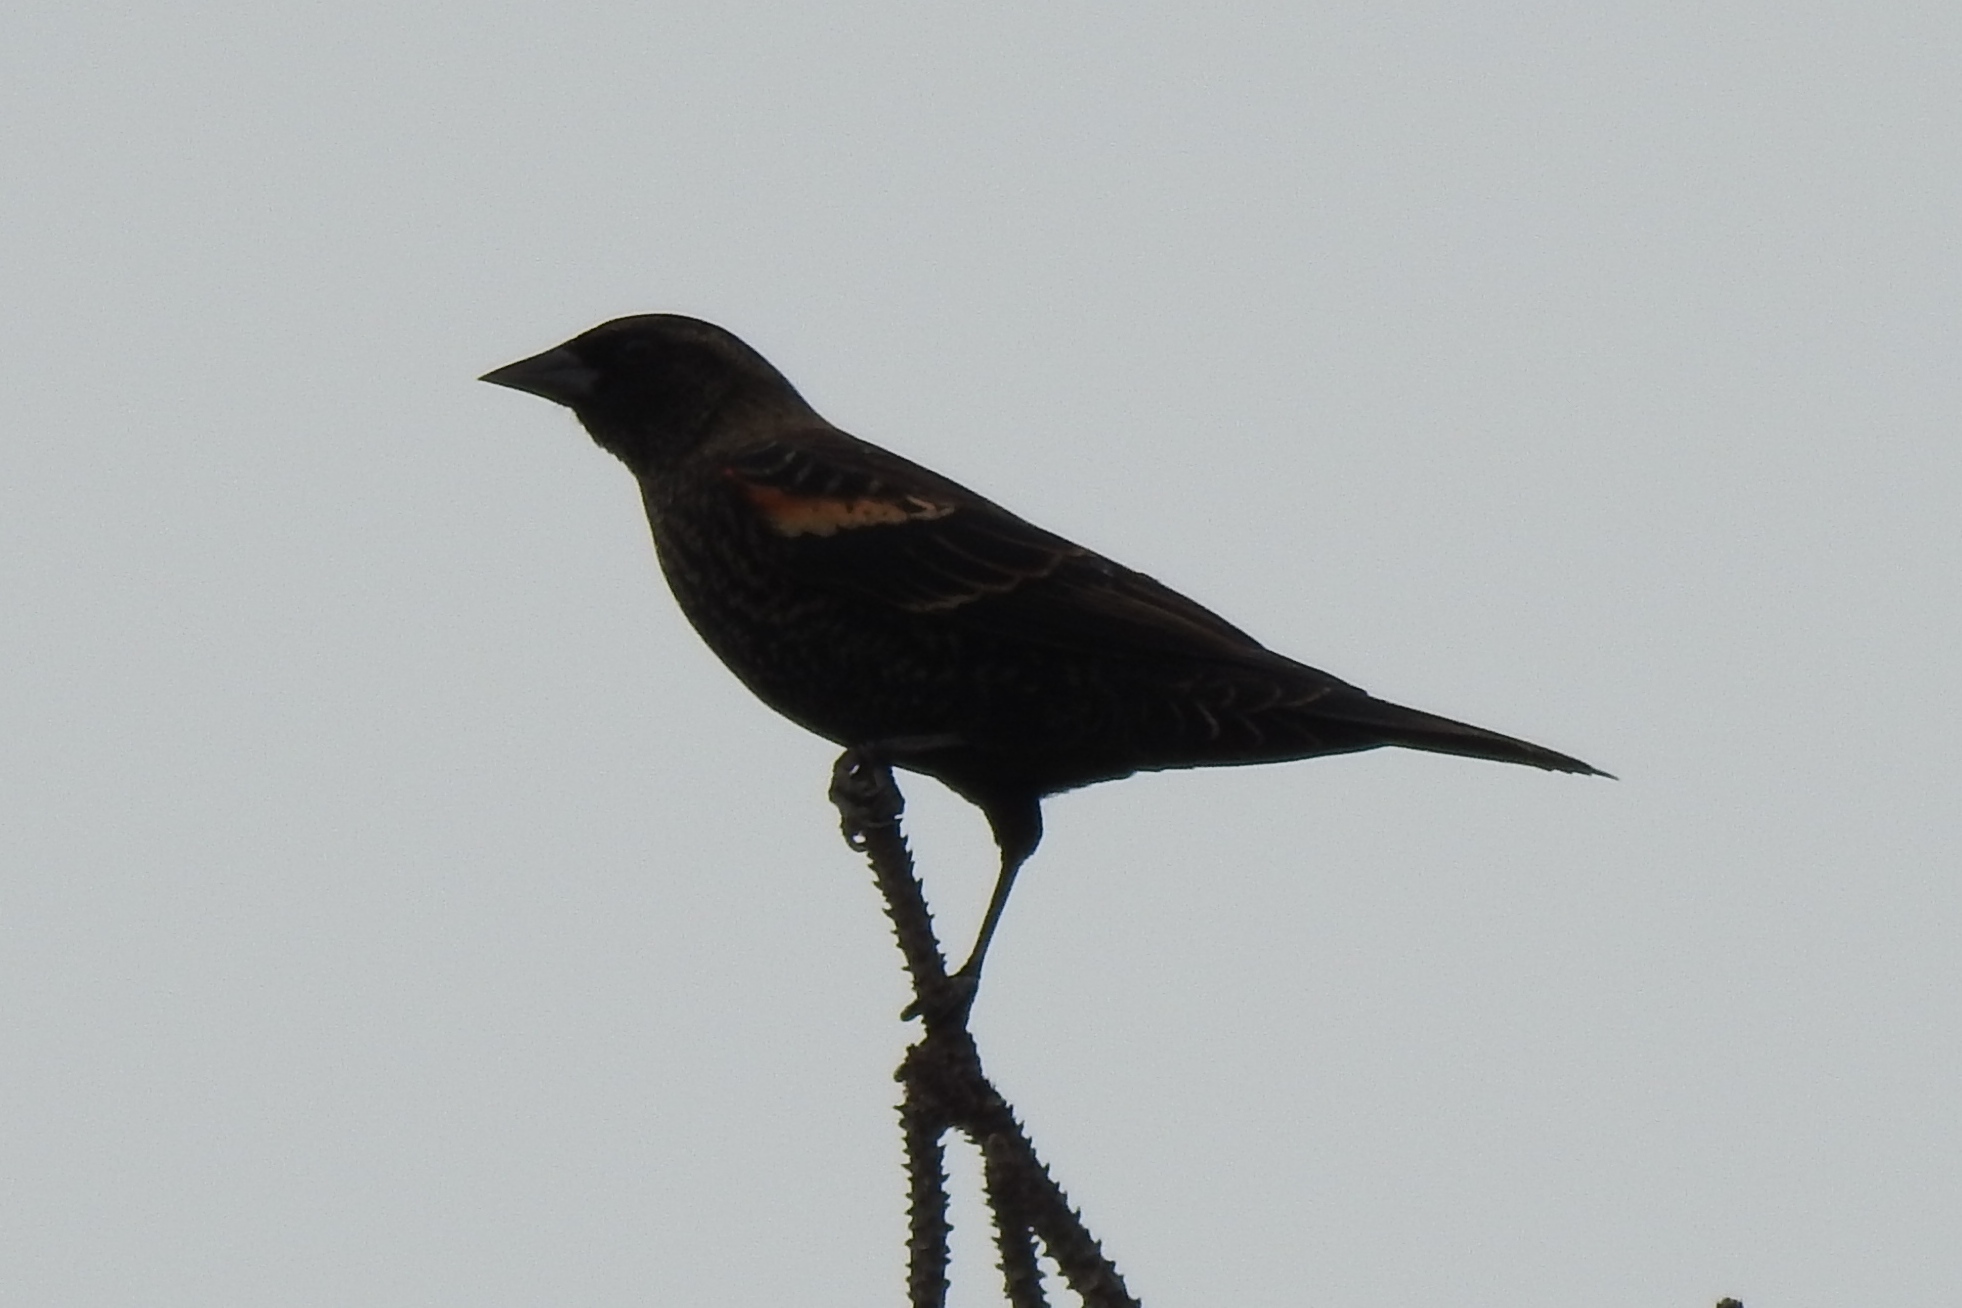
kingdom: Animalia
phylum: Chordata
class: Aves
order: Passeriformes
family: Icteridae
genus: Agelaius
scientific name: Agelaius phoeniceus
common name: Red-winged blackbird
